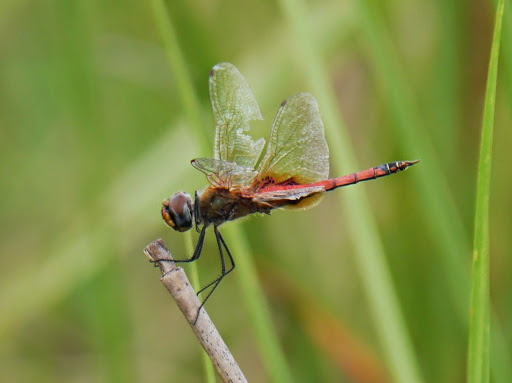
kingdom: Animalia
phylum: Arthropoda
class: Insecta
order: Odonata
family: Libellulidae
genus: Tramea
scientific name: Tramea basilaris
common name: Keyhole glider
